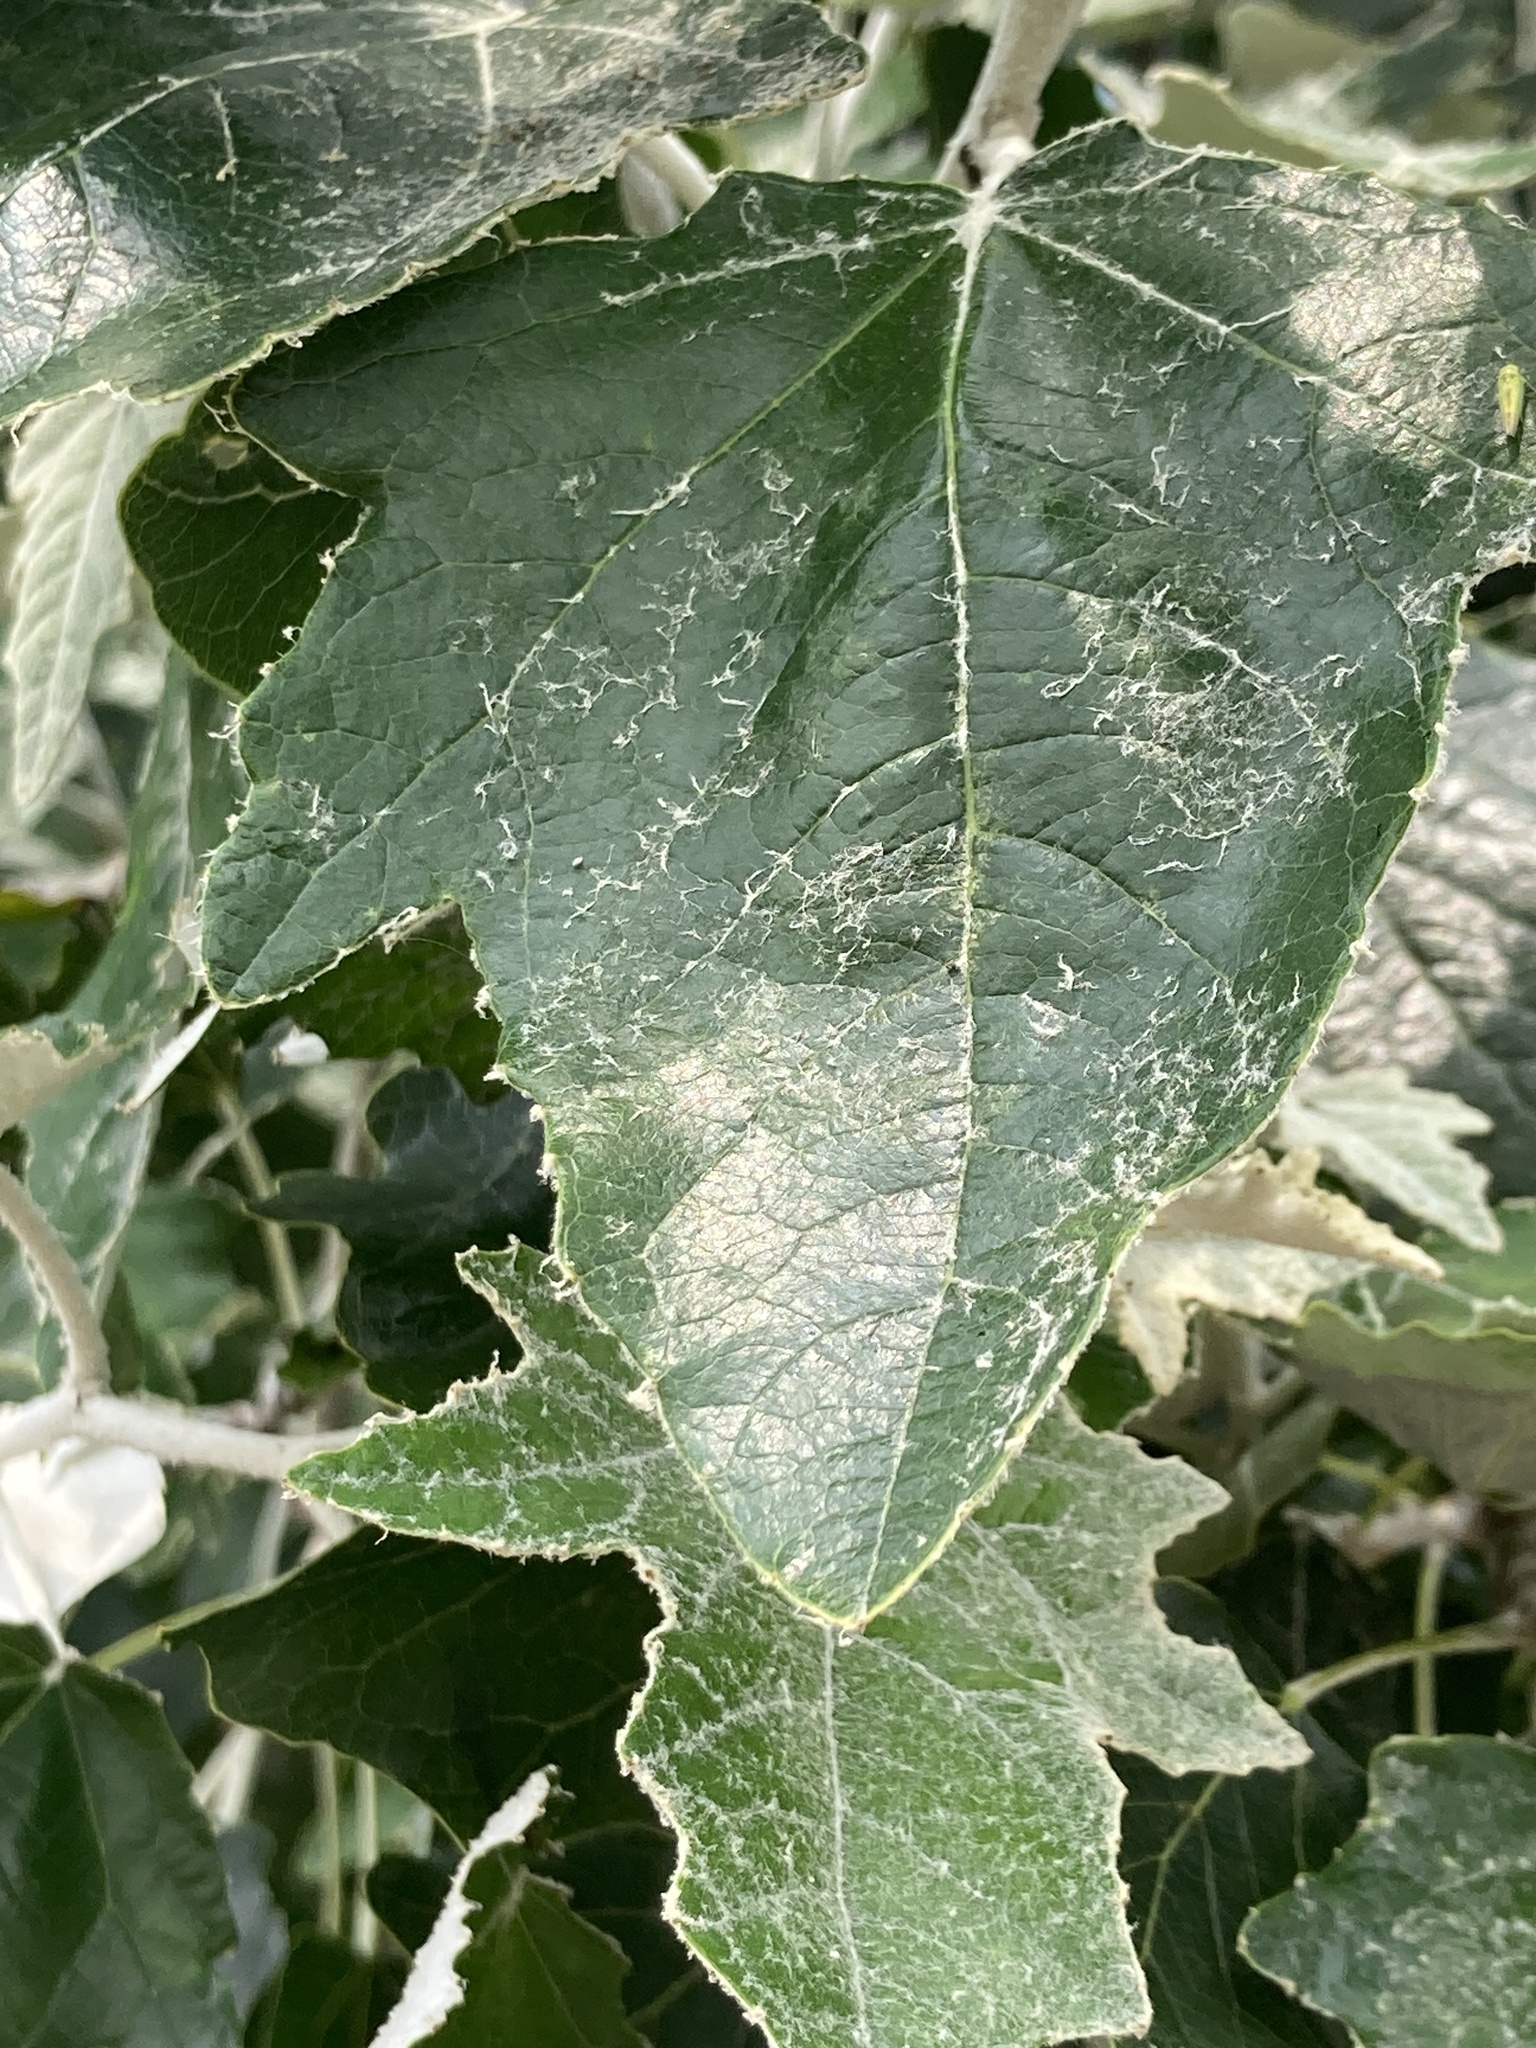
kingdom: Plantae
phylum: Tracheophyta
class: Magnoliopsida
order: Malpighiales
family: Salicaceae
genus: Populus
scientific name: Populus alba
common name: White poplar
